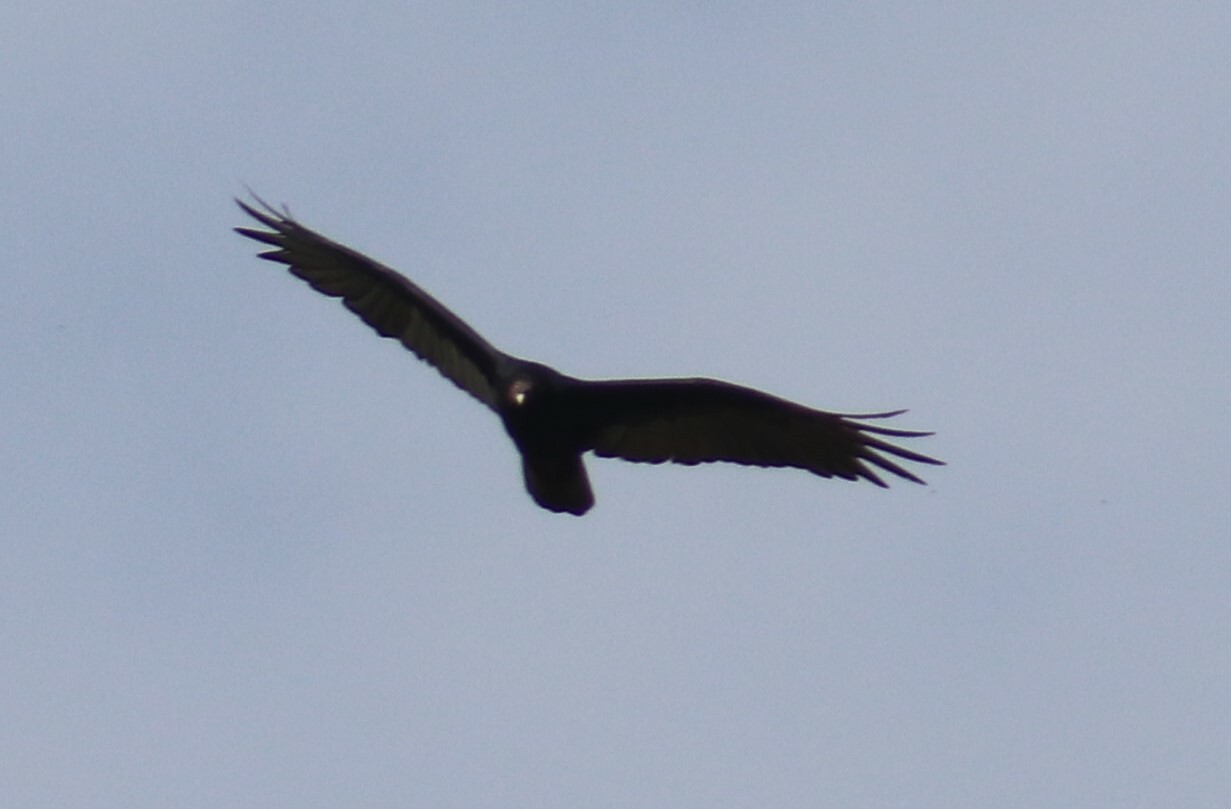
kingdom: Animalia
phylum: Chordata
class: Aves
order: Accipitriformes
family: Cathartidae
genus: Cathartes
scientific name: Cathartes aura
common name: Turkey vulture
